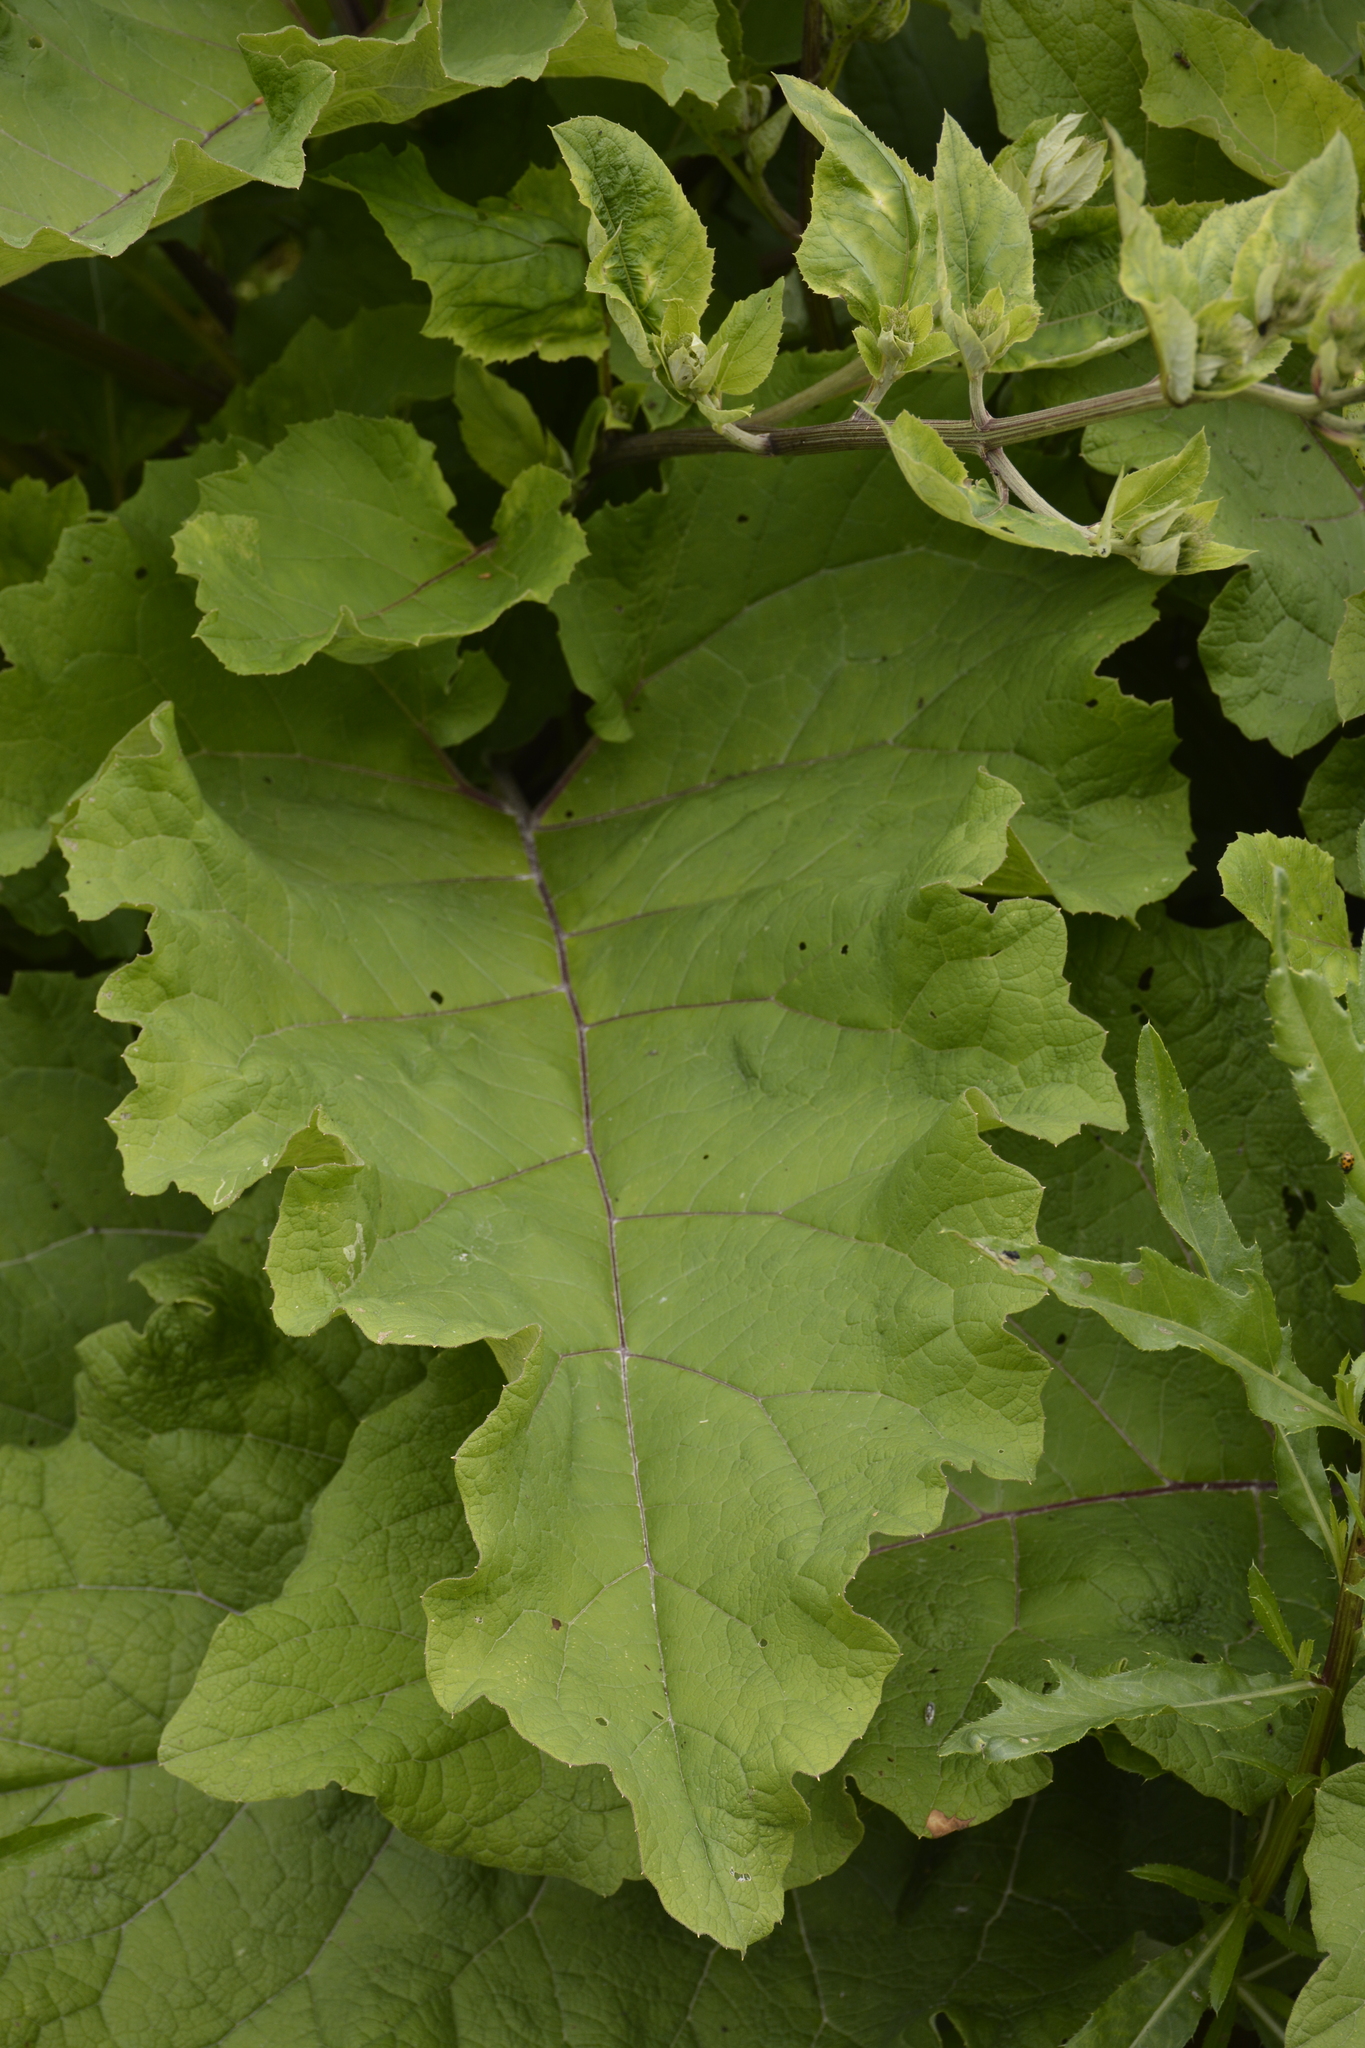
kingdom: Plantae
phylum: Tracheophyta
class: Magnoliopsida
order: Asterales
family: Asteraceae
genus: Arctium
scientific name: Arctium tomentosum
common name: Woolly burdock
